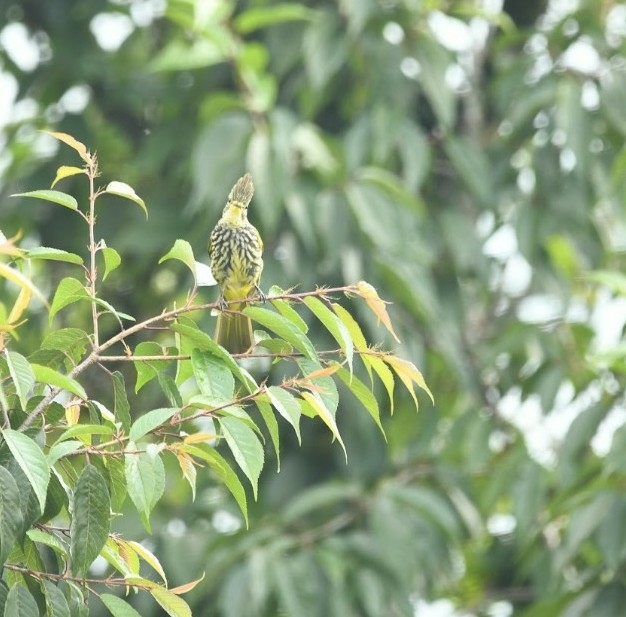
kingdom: Animalia
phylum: Chordata
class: Aves
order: Passeriformes
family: Pycnonotidae
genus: Pycnonotus
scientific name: Pycnonotus striatus
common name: Striated bulbul
